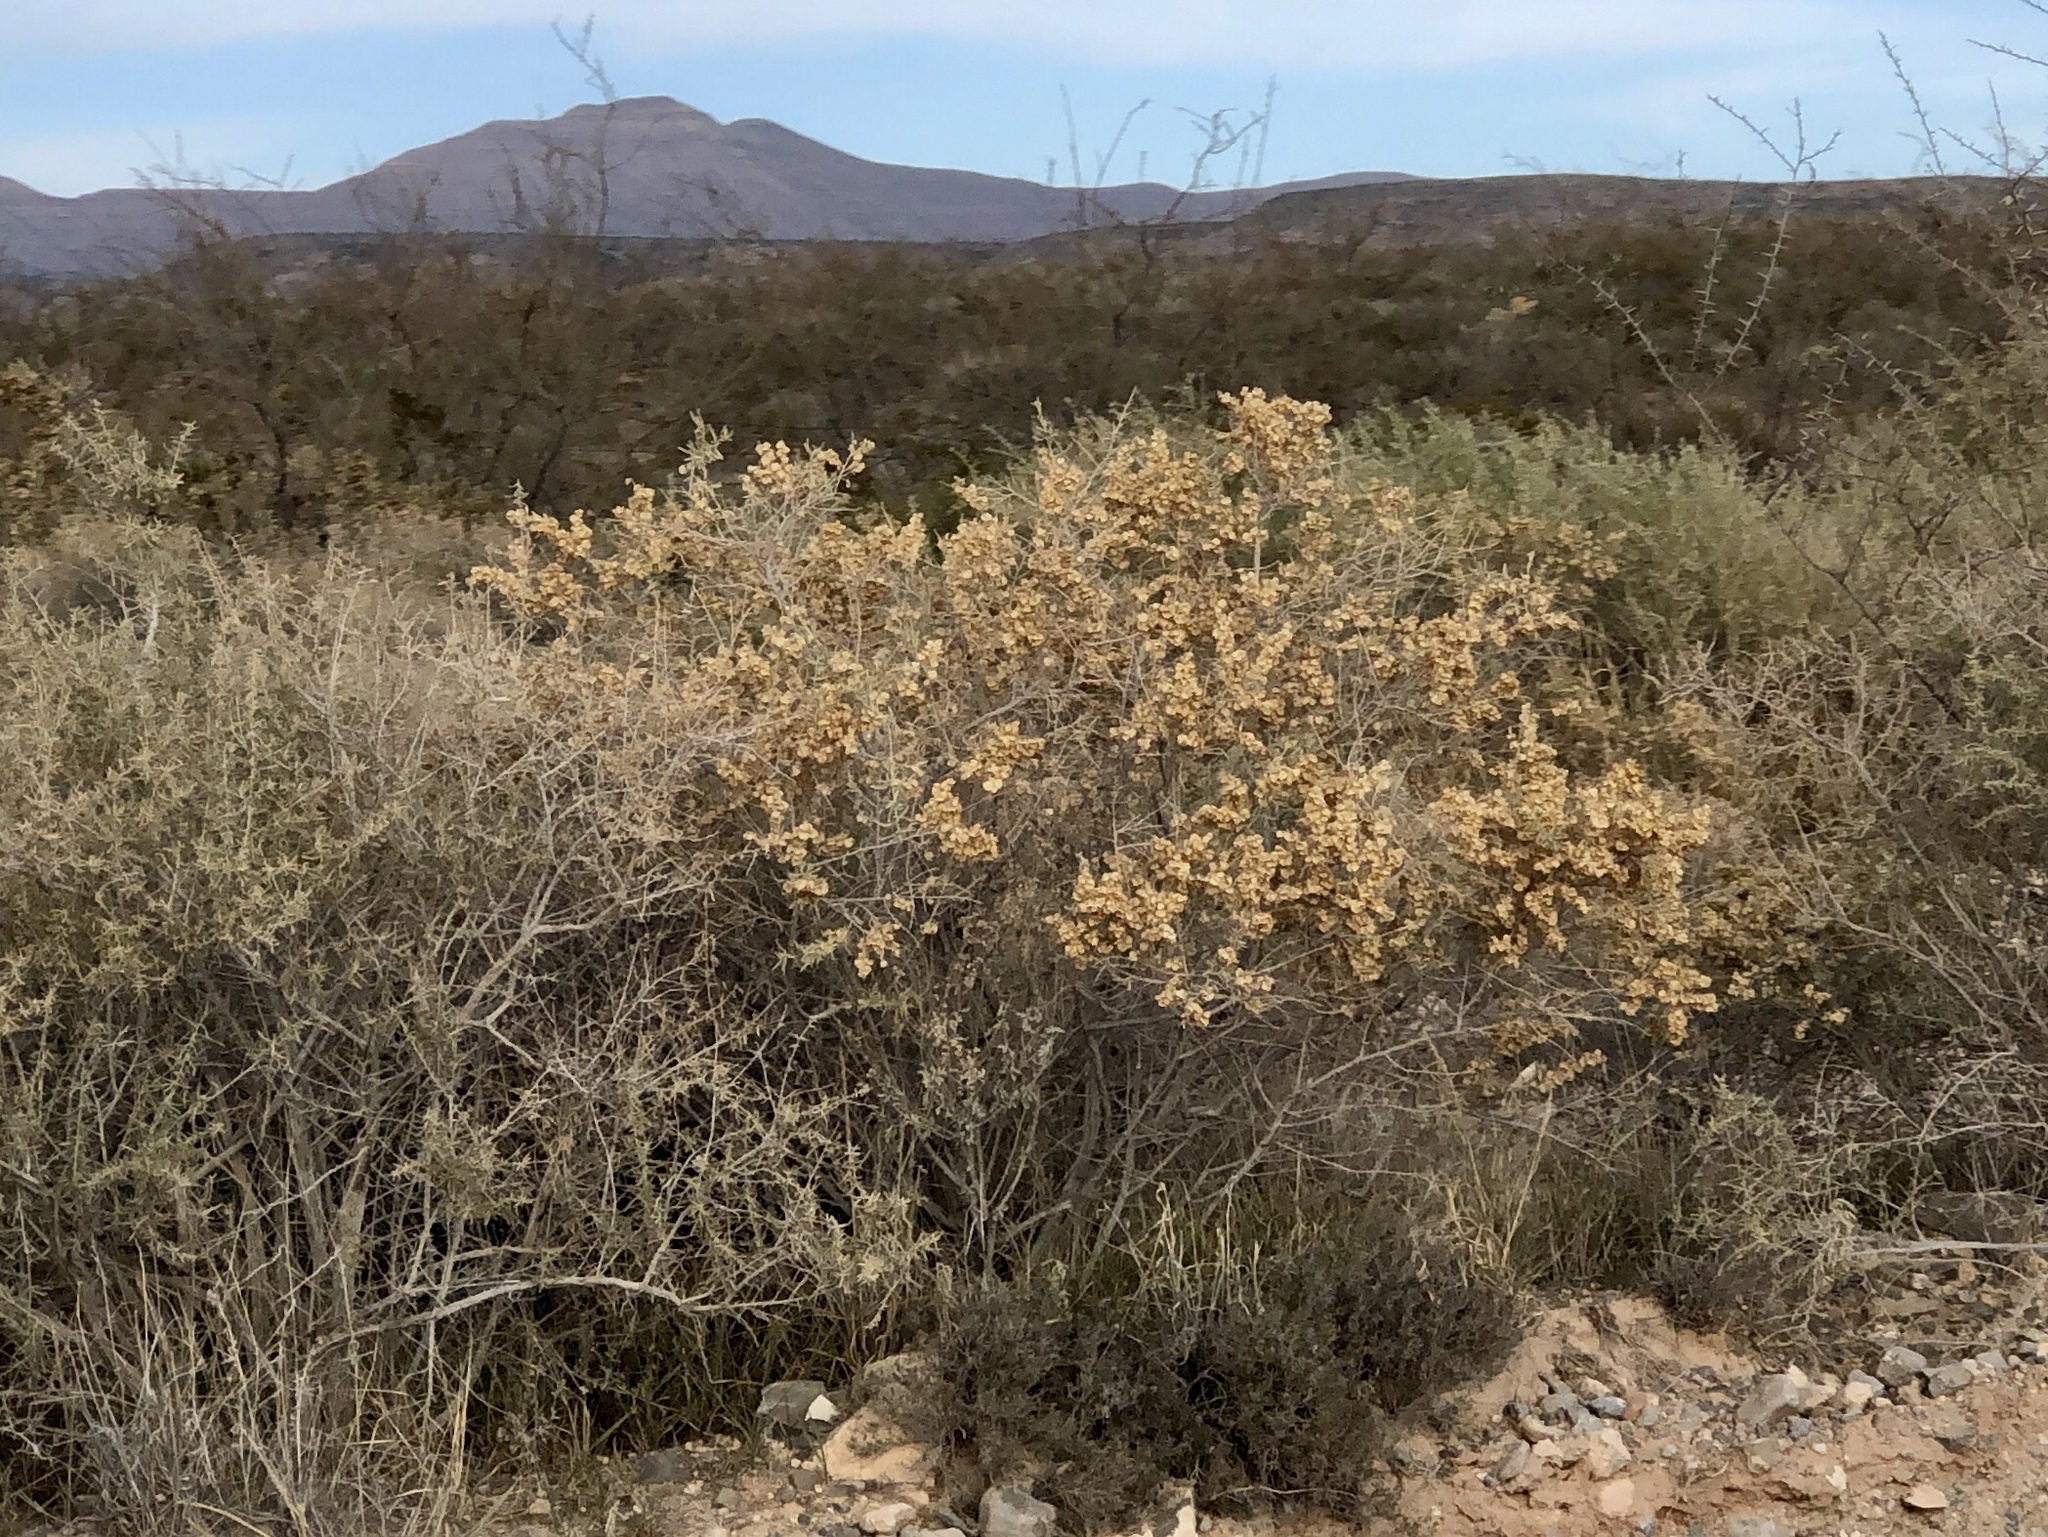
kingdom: Plantae
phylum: Tracheophyta
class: Magnoliopsida
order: Caryophyllales
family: Amaranthaceae
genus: Atriplex
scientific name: Atriplex canescens
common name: Four-wing saltbush
